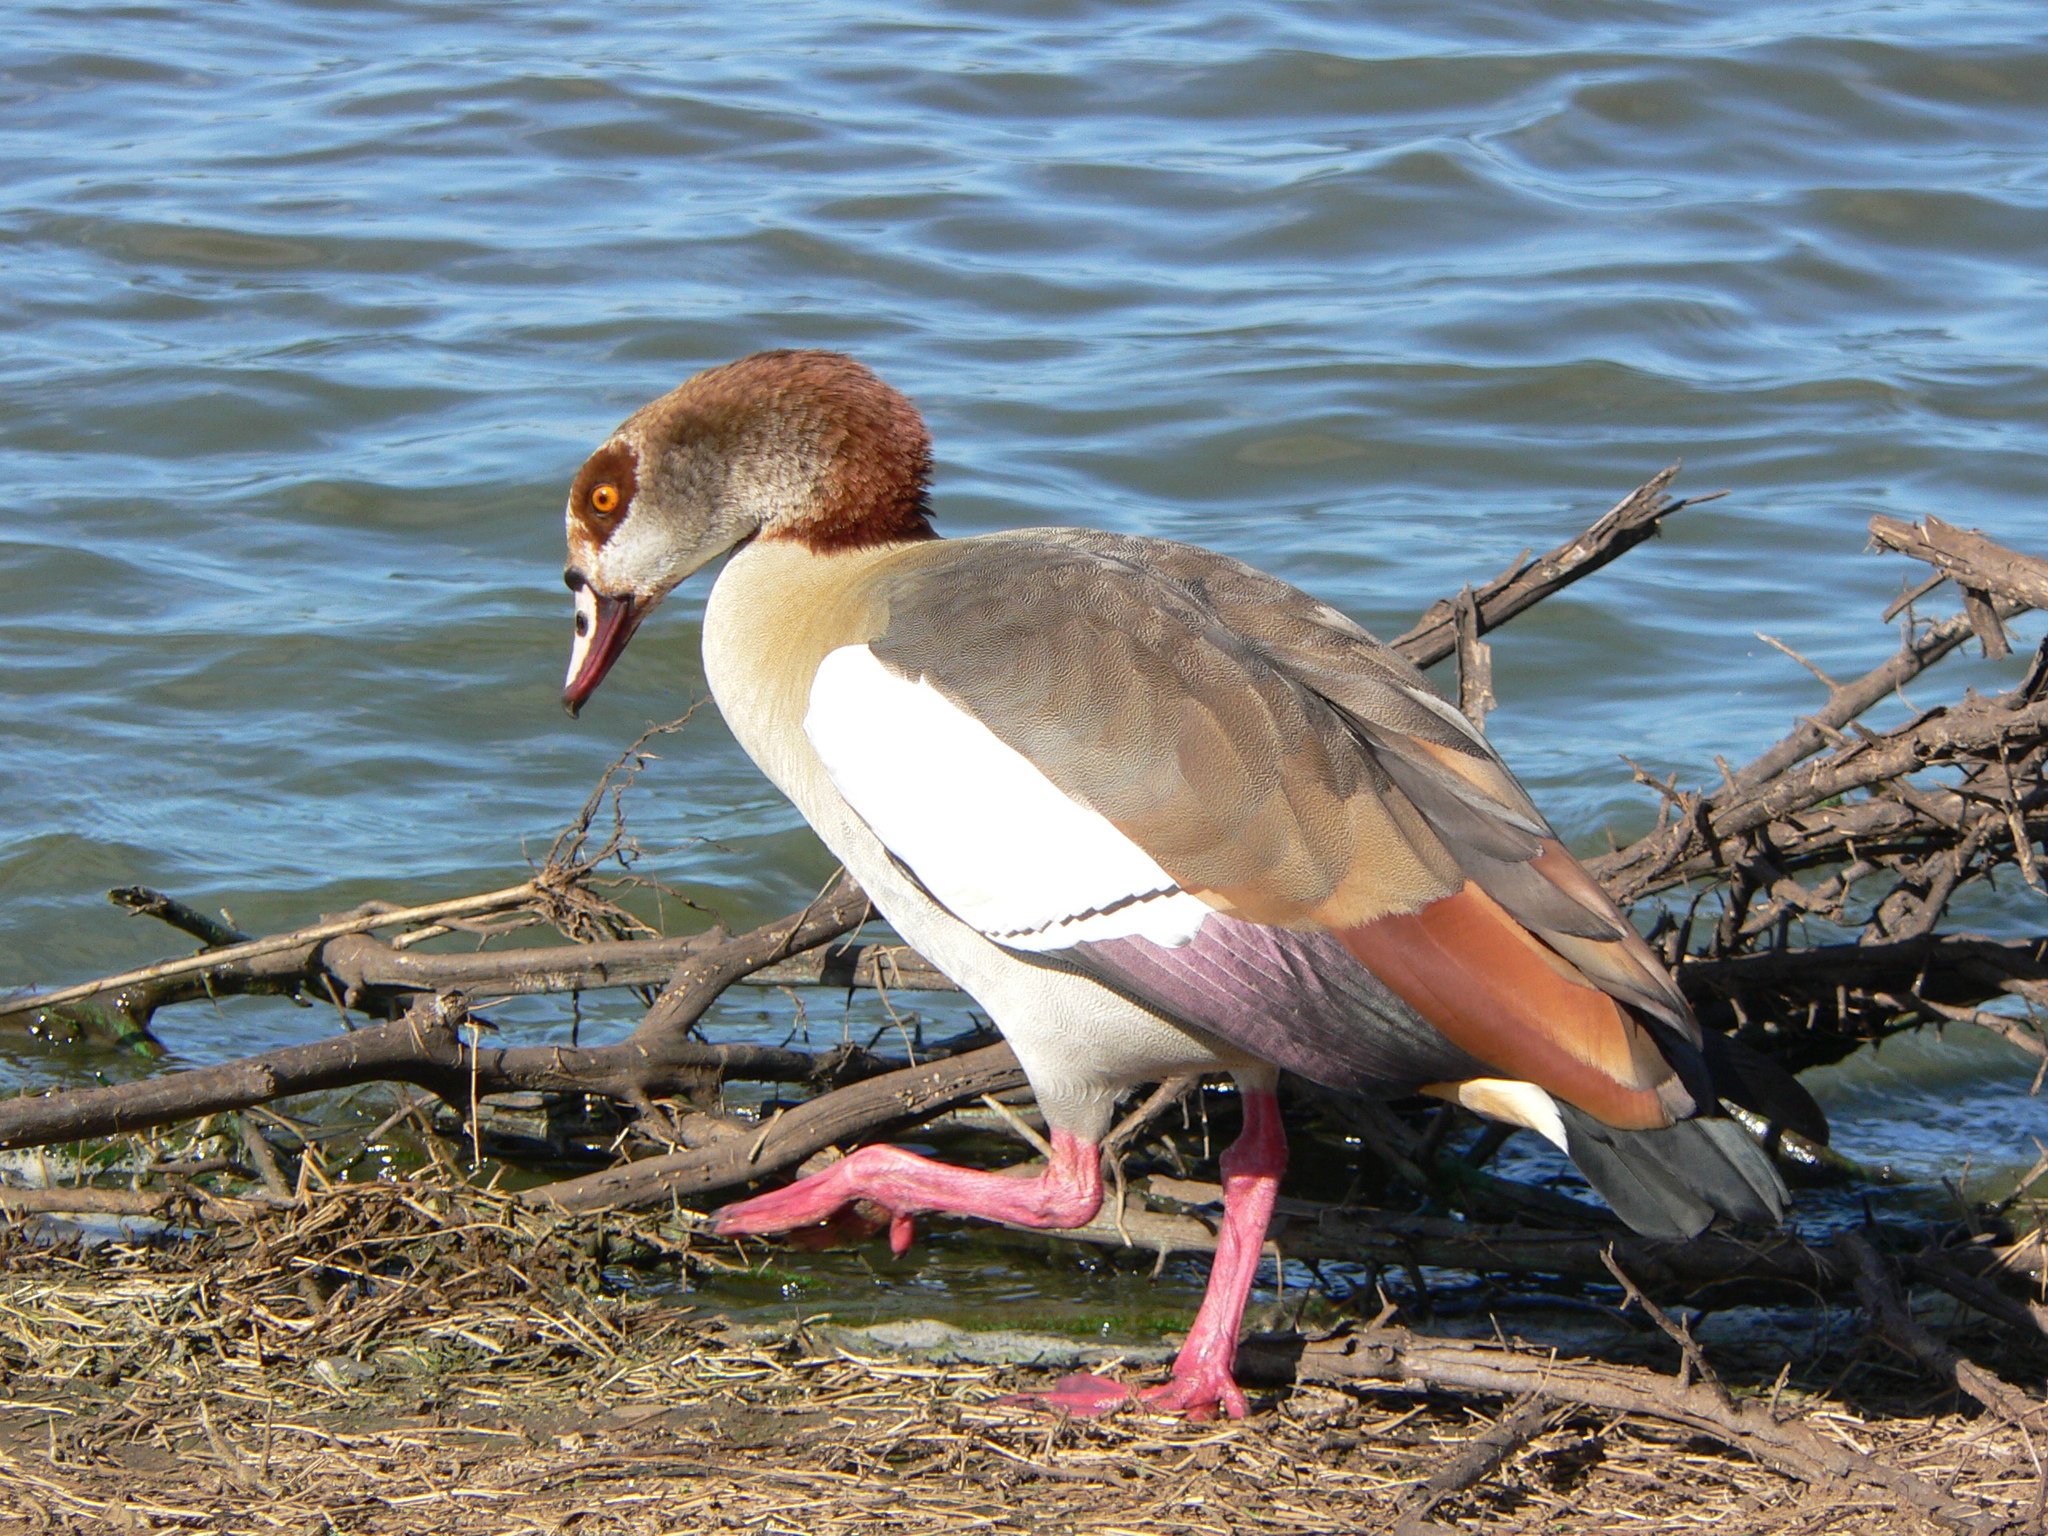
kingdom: Animalia
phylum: Chordata
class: Aves
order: Anseriformes
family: Anatidae
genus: Alopochen
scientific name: Alopochen aegyptiaca
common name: Egyptian goose
